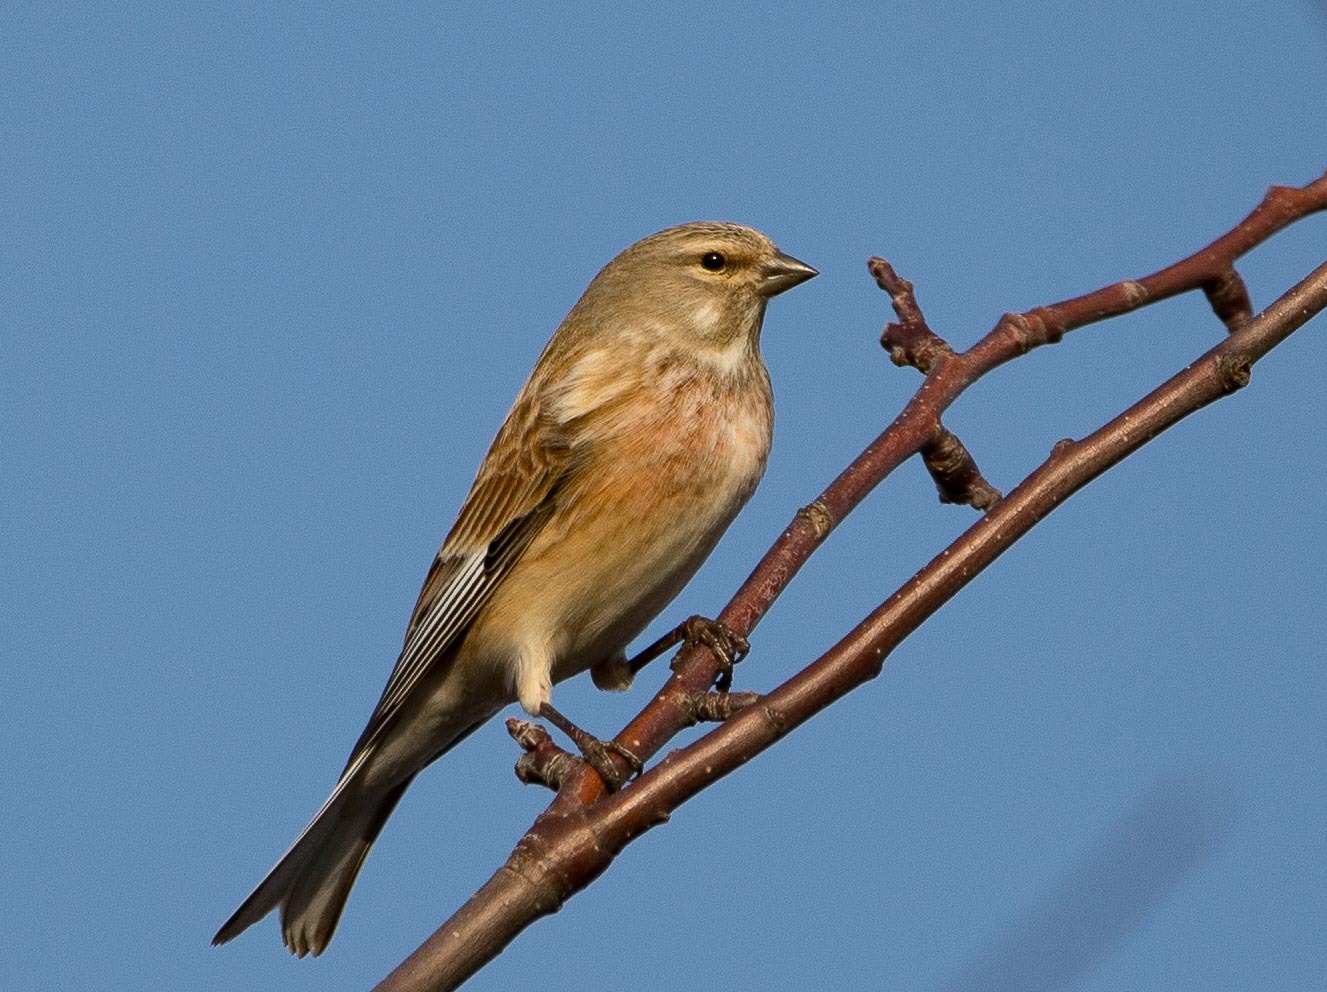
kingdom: Animalia
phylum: Chordata
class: Aves
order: Passeriformes
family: Fringillidae
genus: Linaria
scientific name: Linaria cannabina
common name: Common linnet
